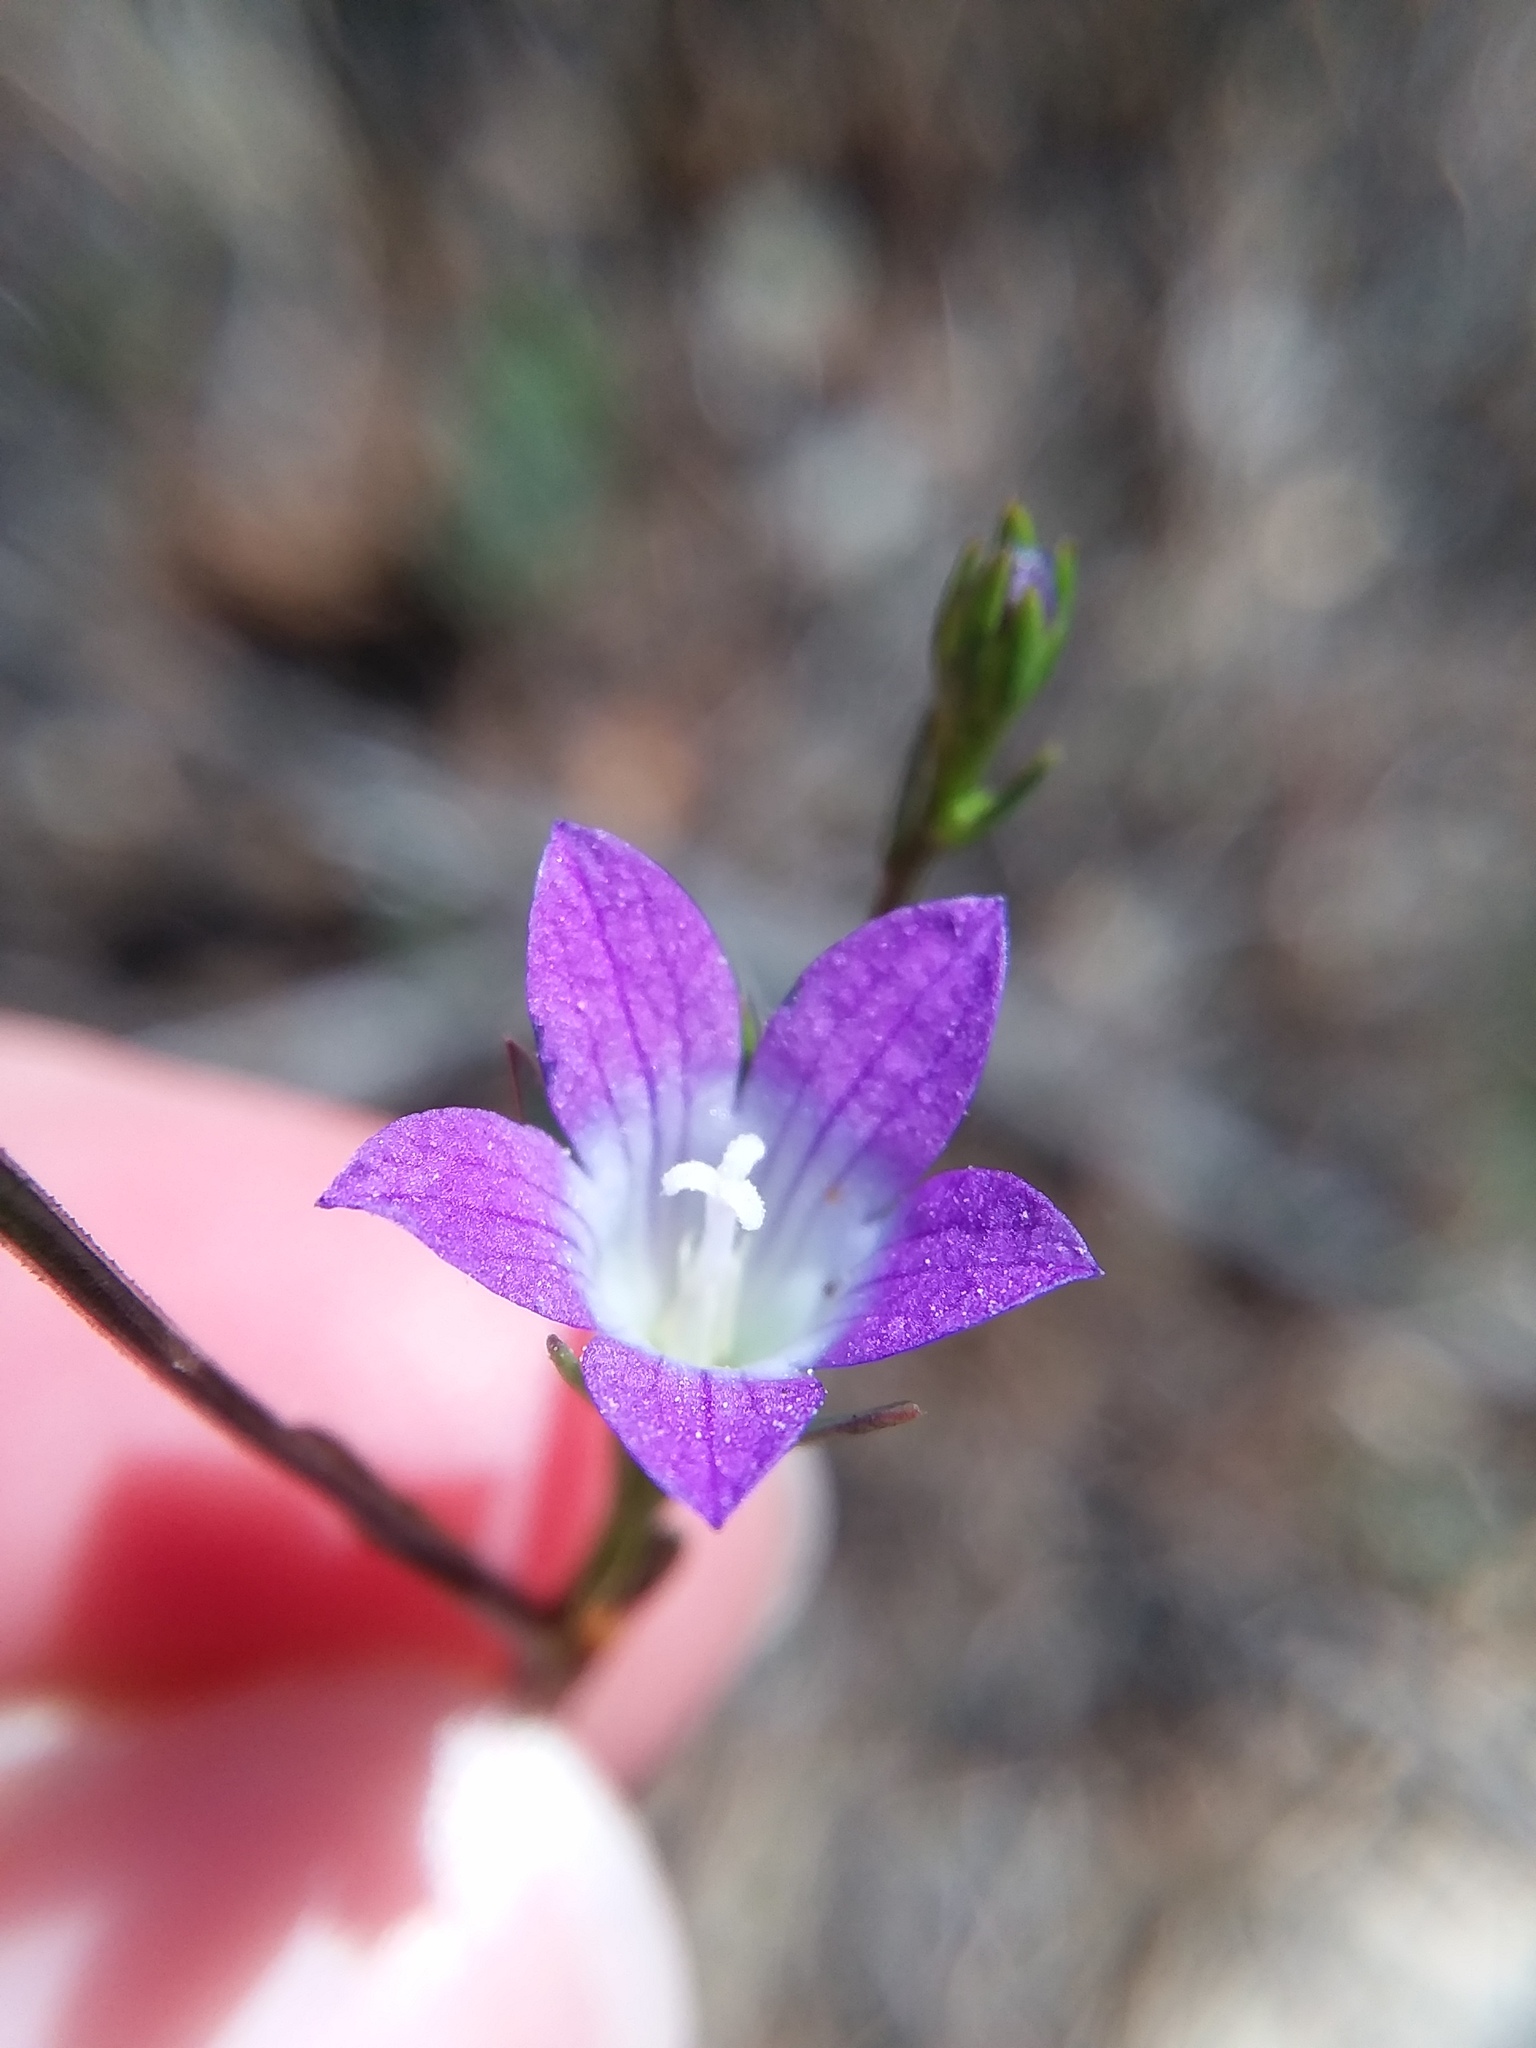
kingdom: Plantae
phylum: Tracheophyta
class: Magnoliopsida
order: Asterales
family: Campanulaceae
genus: Githopsis
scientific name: Githopsis pulchella
